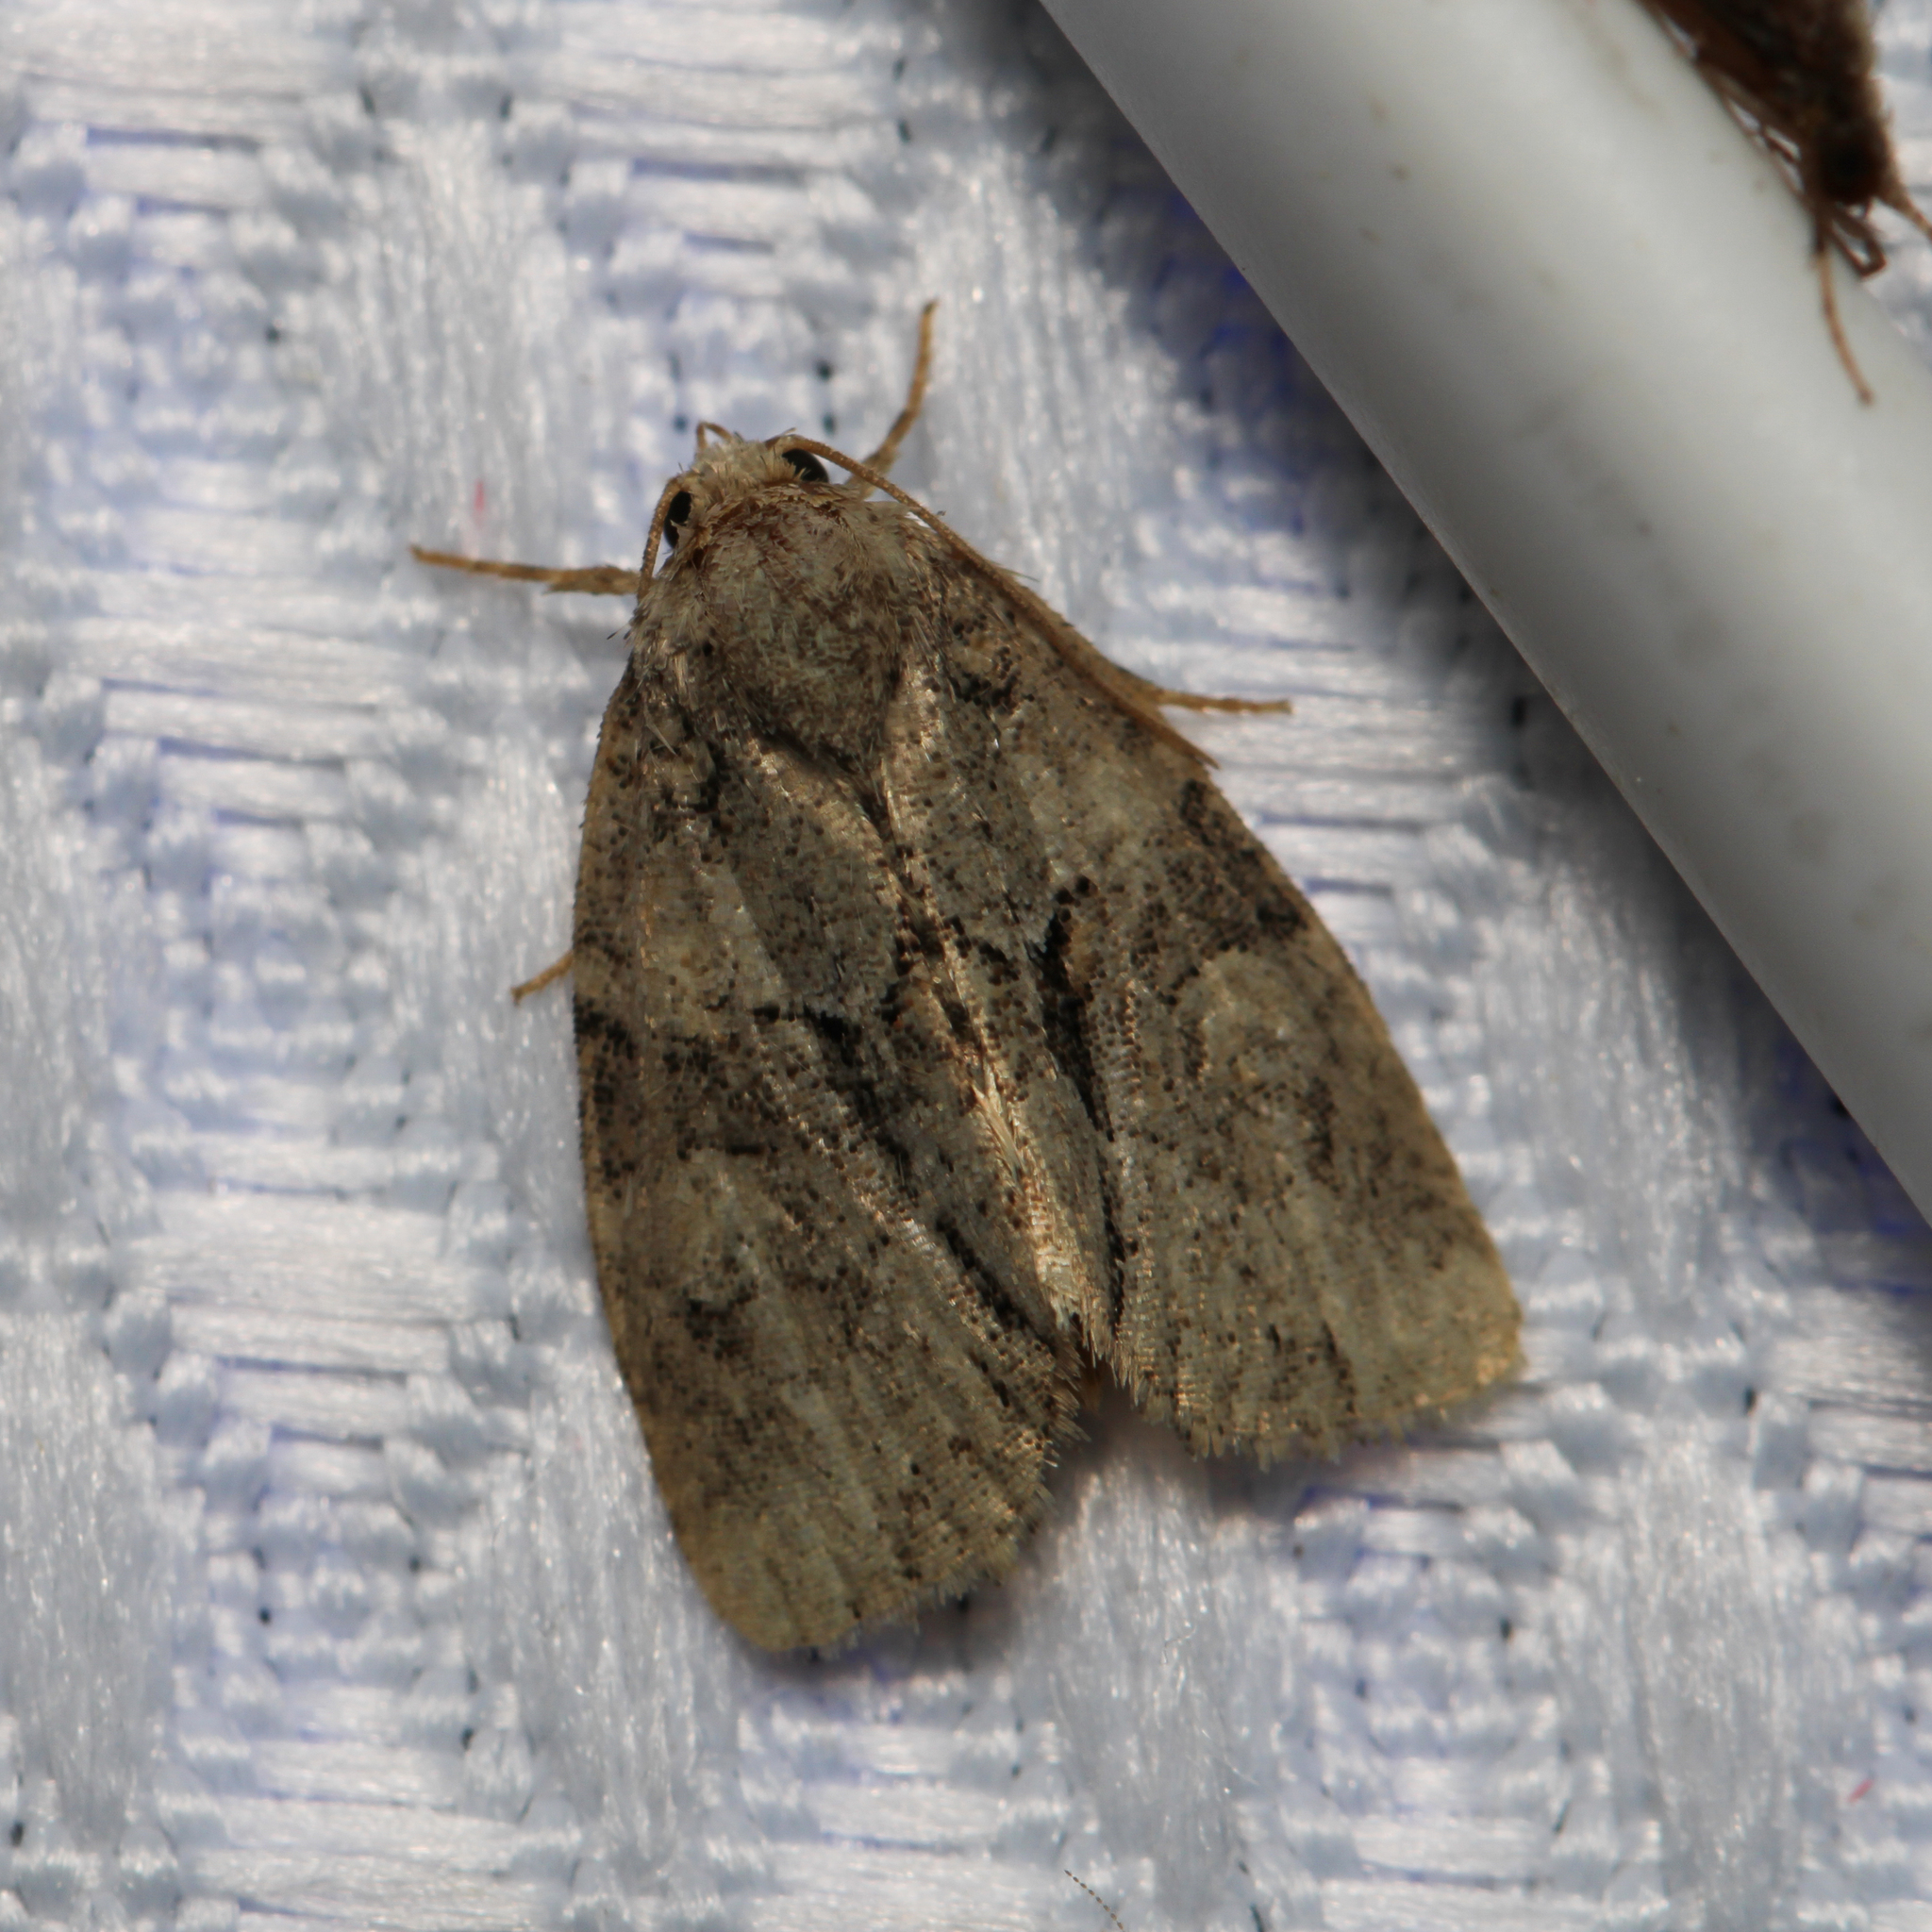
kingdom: Animalia
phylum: Arthropoda
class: Insecta
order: Lepidoptera
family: Noctuidae
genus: Neoligia
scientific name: Neoligia exhausta
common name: Exhausted brocade
